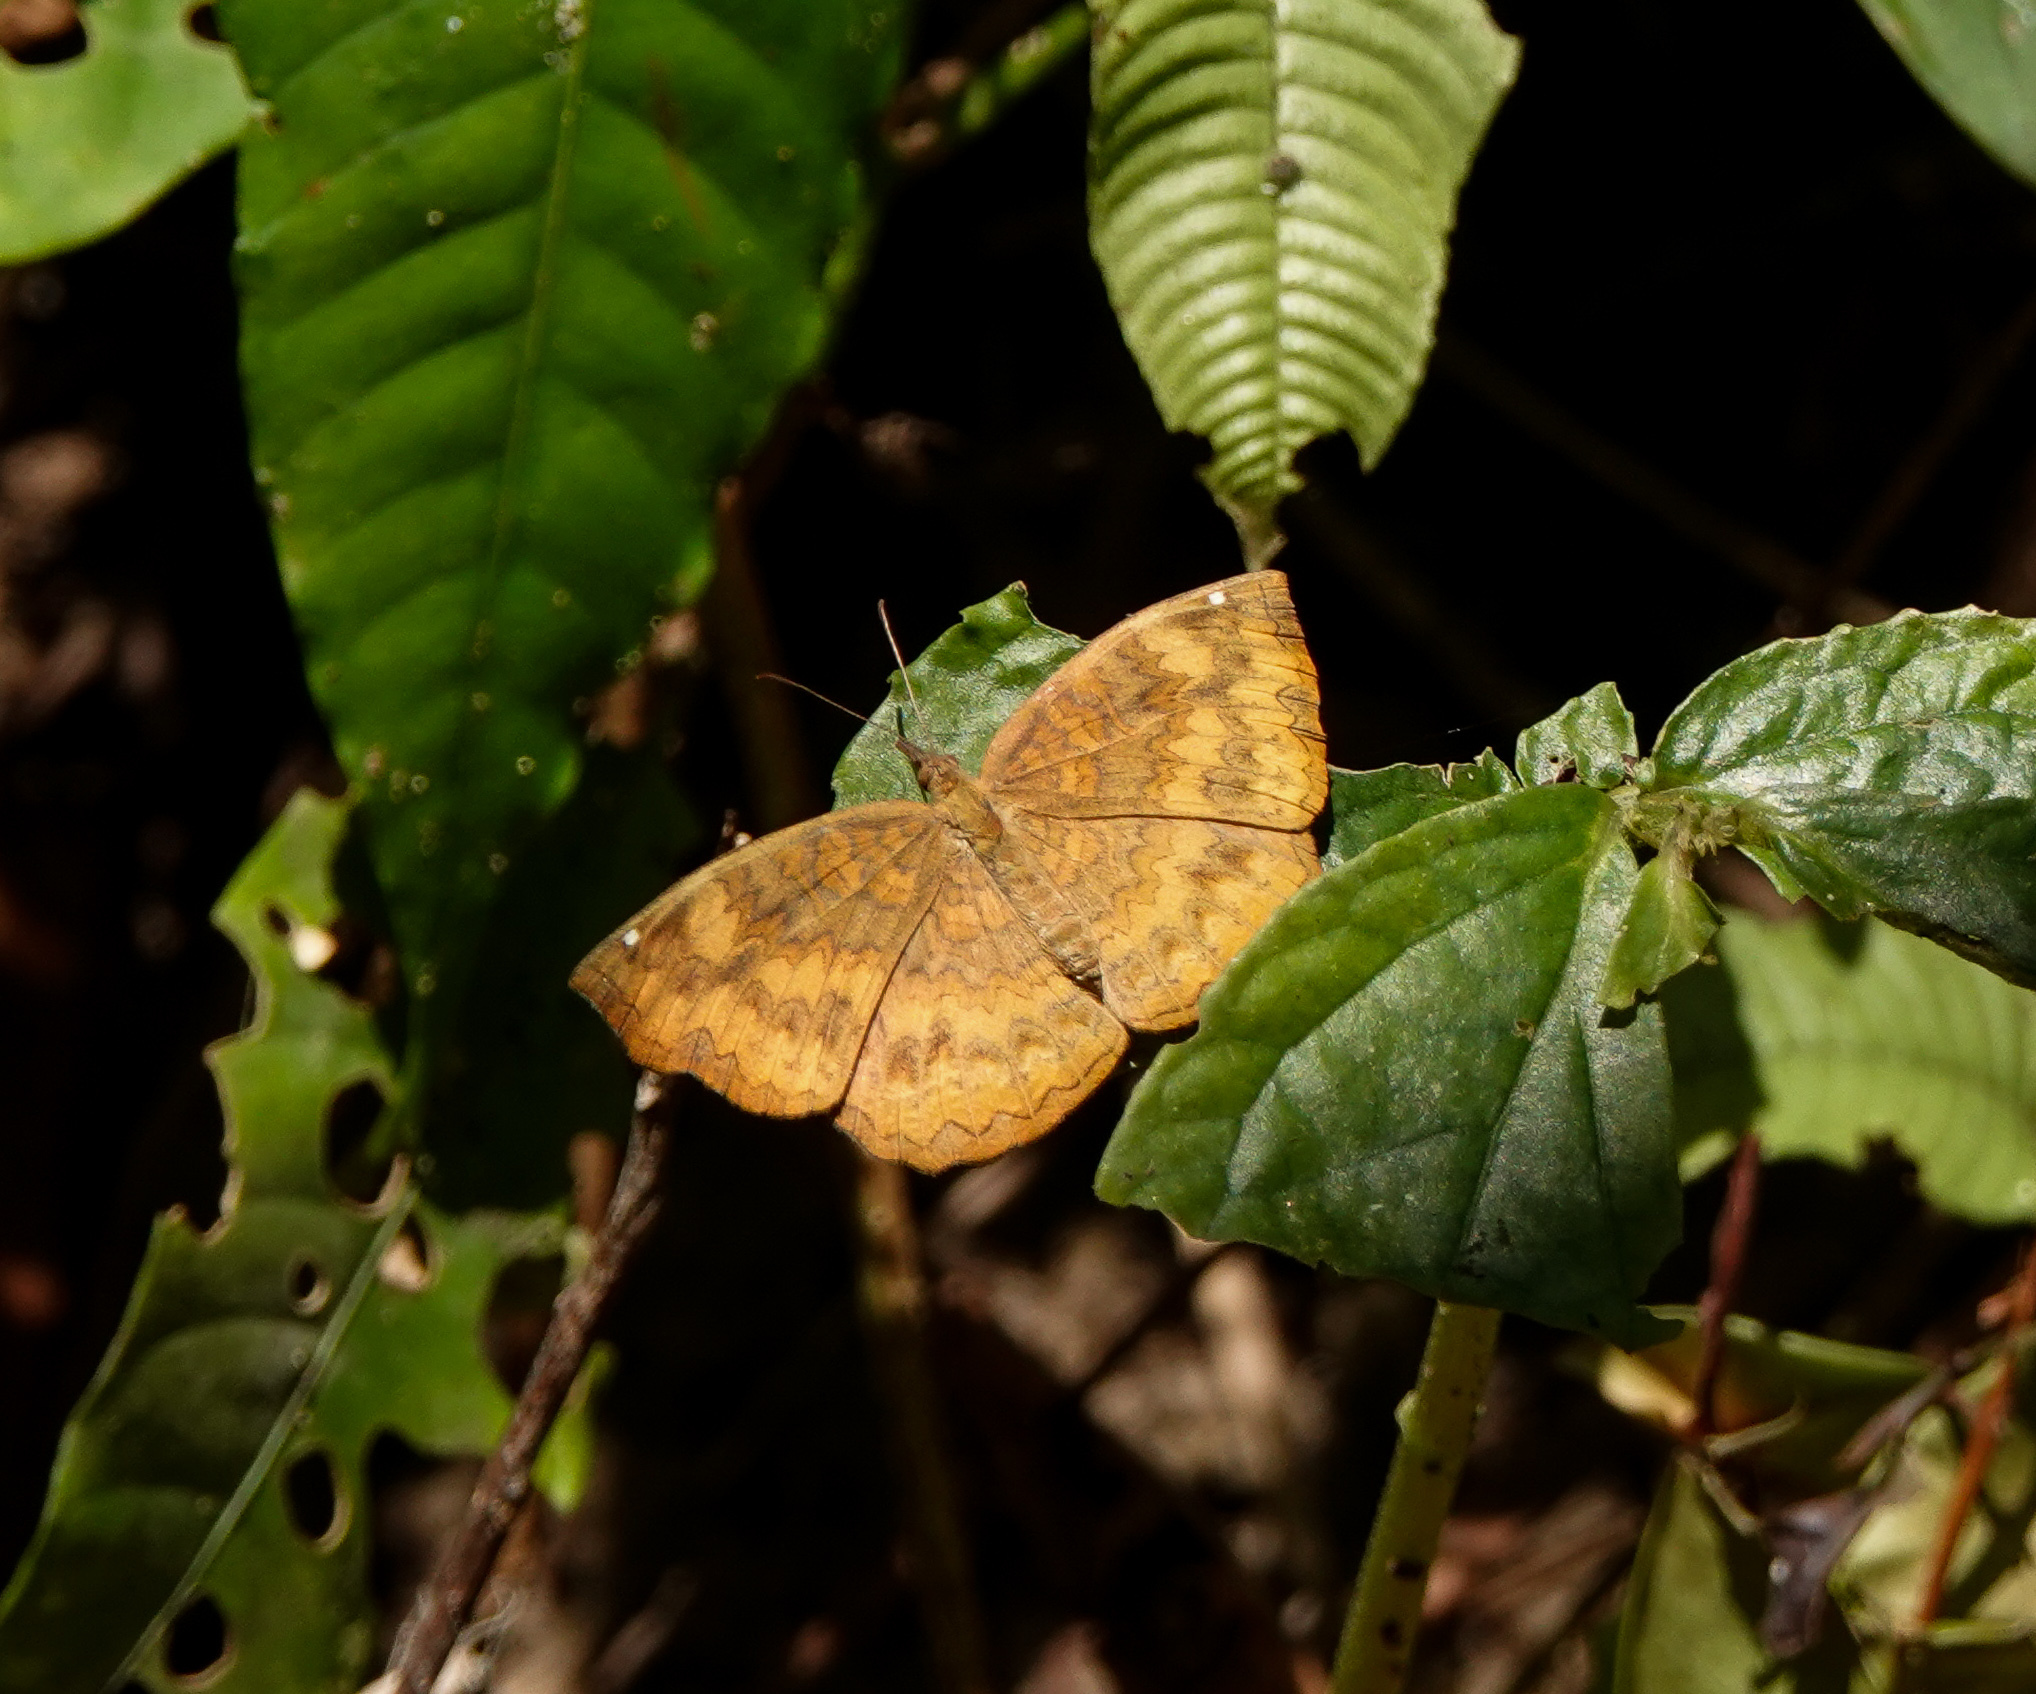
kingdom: Animalia
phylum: Arthropoda
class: Insecta
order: Lepidoptera
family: Nymphalidae
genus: Ariadne
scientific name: Ariadne merione
